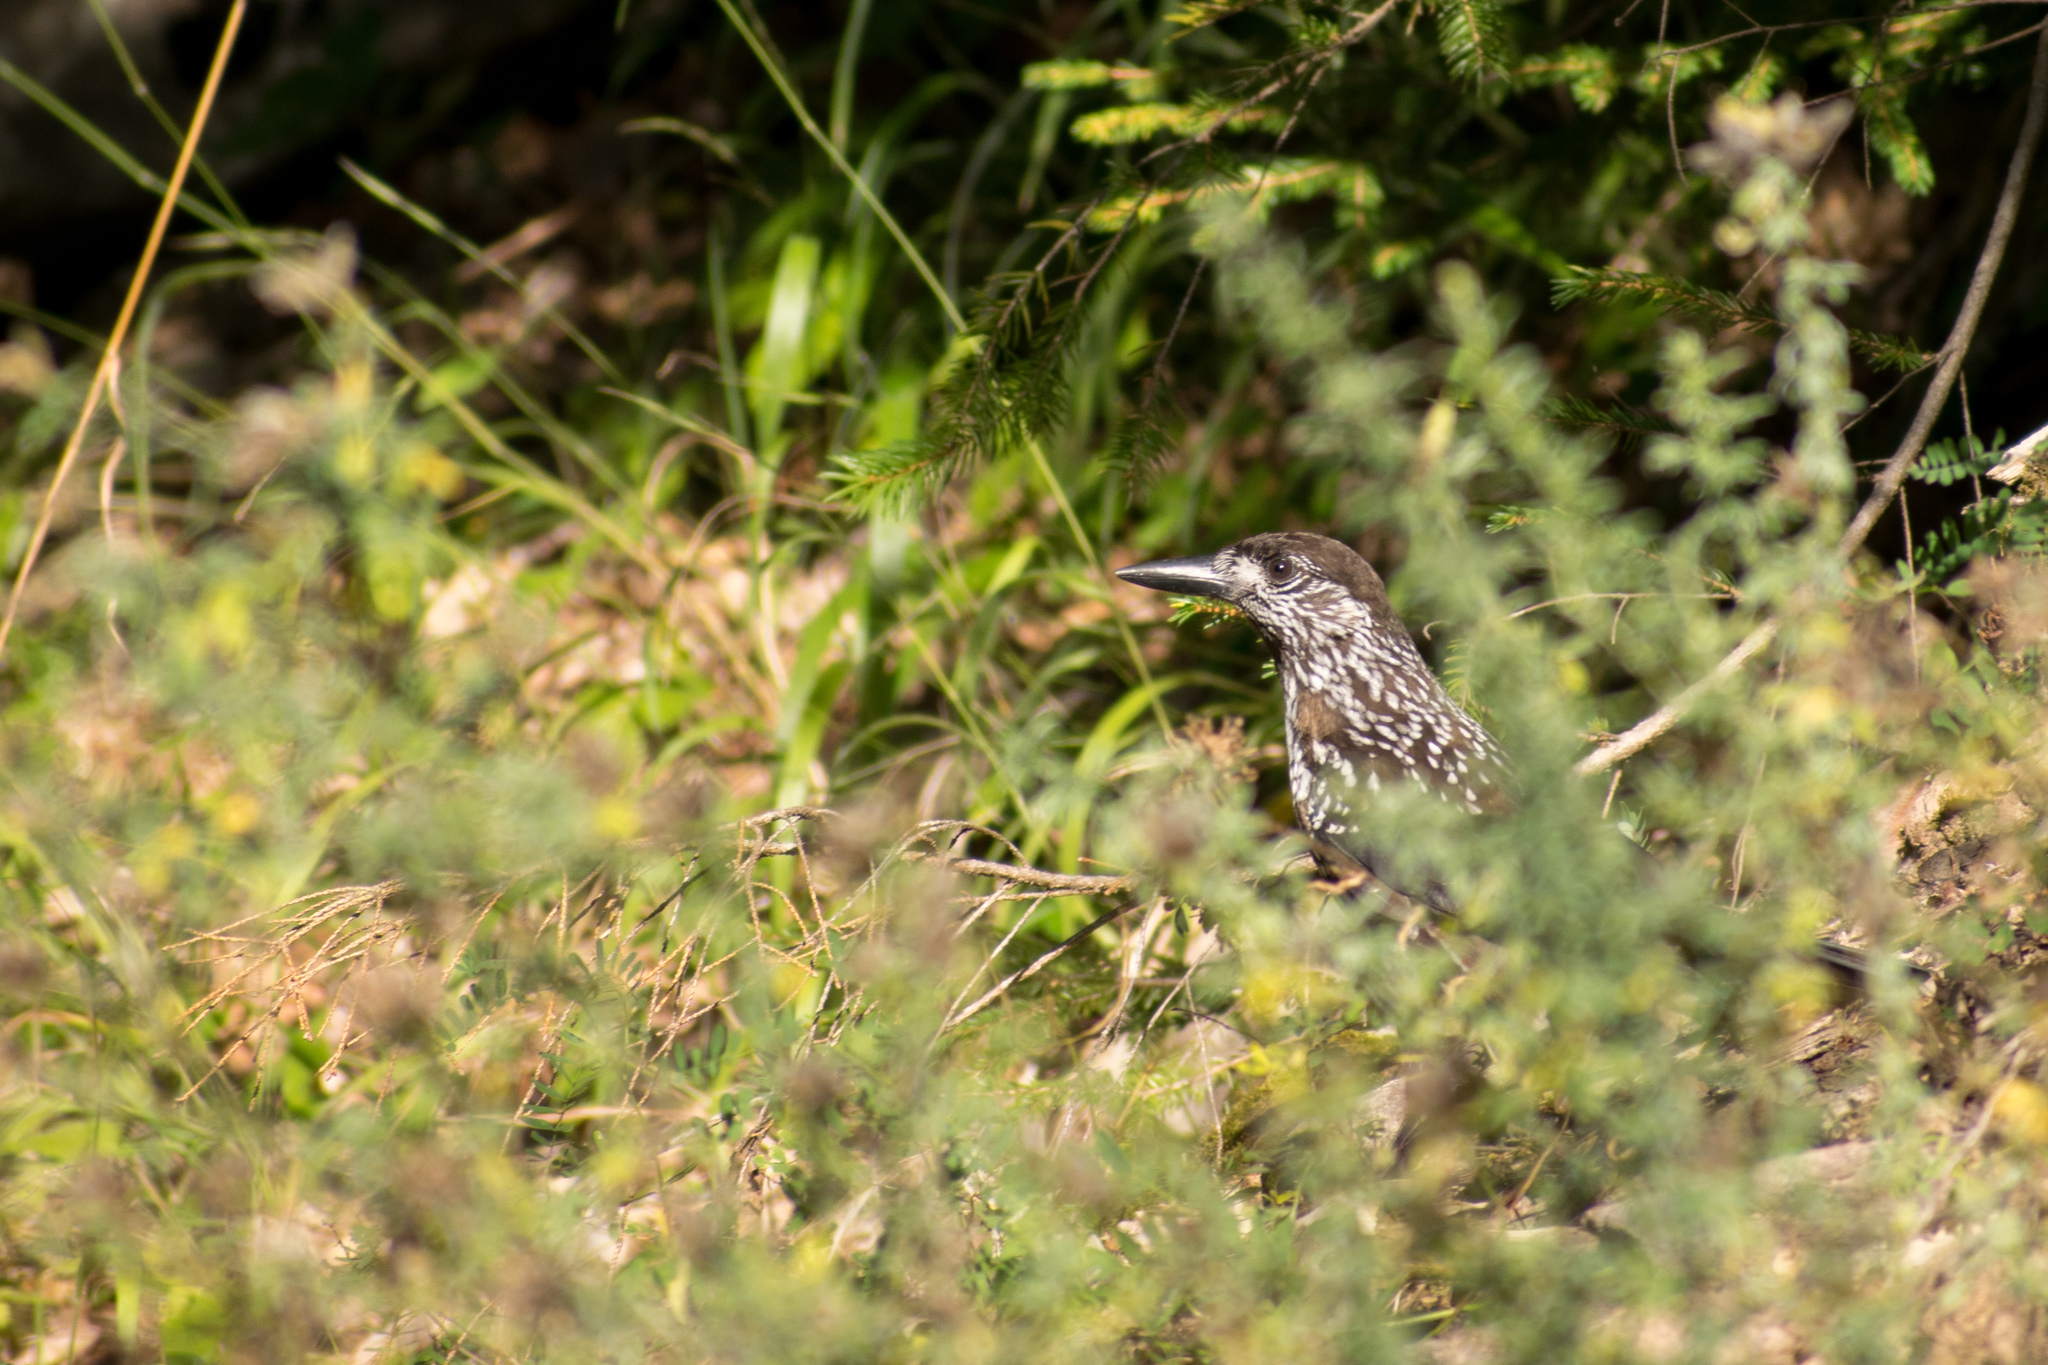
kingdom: Animalia
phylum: Chordata
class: Aves
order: Passeriformes
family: Corvidae
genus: Nucifraga
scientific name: Nucifraga caryocatactes
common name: Spotted nutcracker
